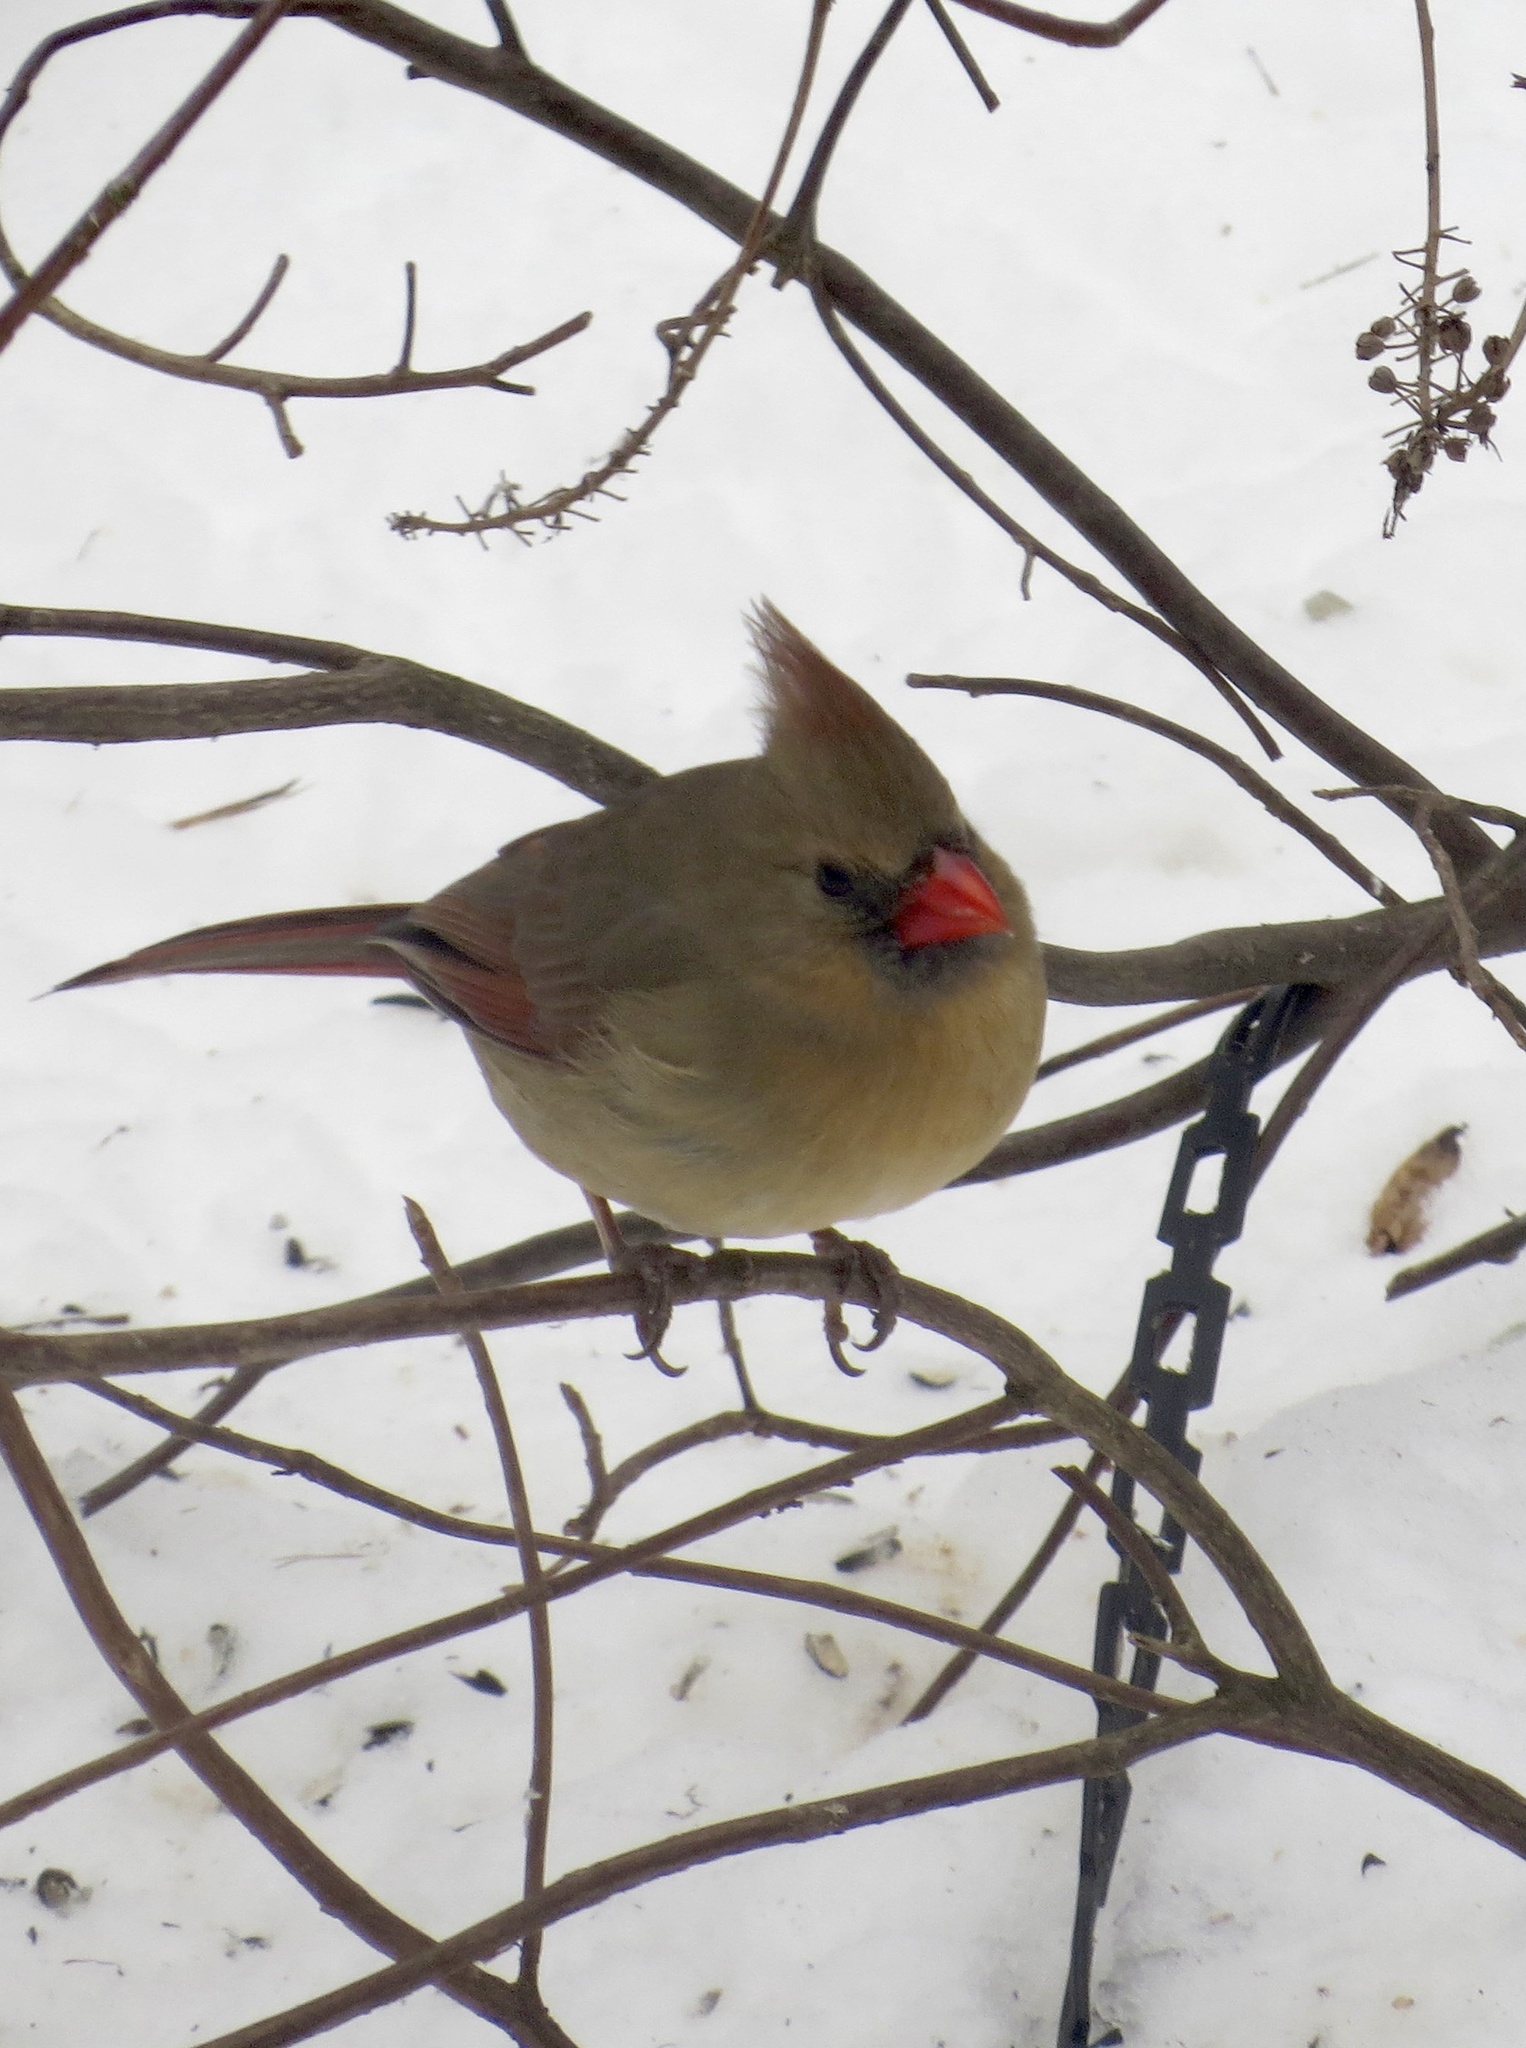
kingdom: Animalia
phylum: Chordata
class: Aves
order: Passeriformes
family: Cardinalidae
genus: Cardinalis
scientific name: Cardinalis cardinalis
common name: Northern cardinal
